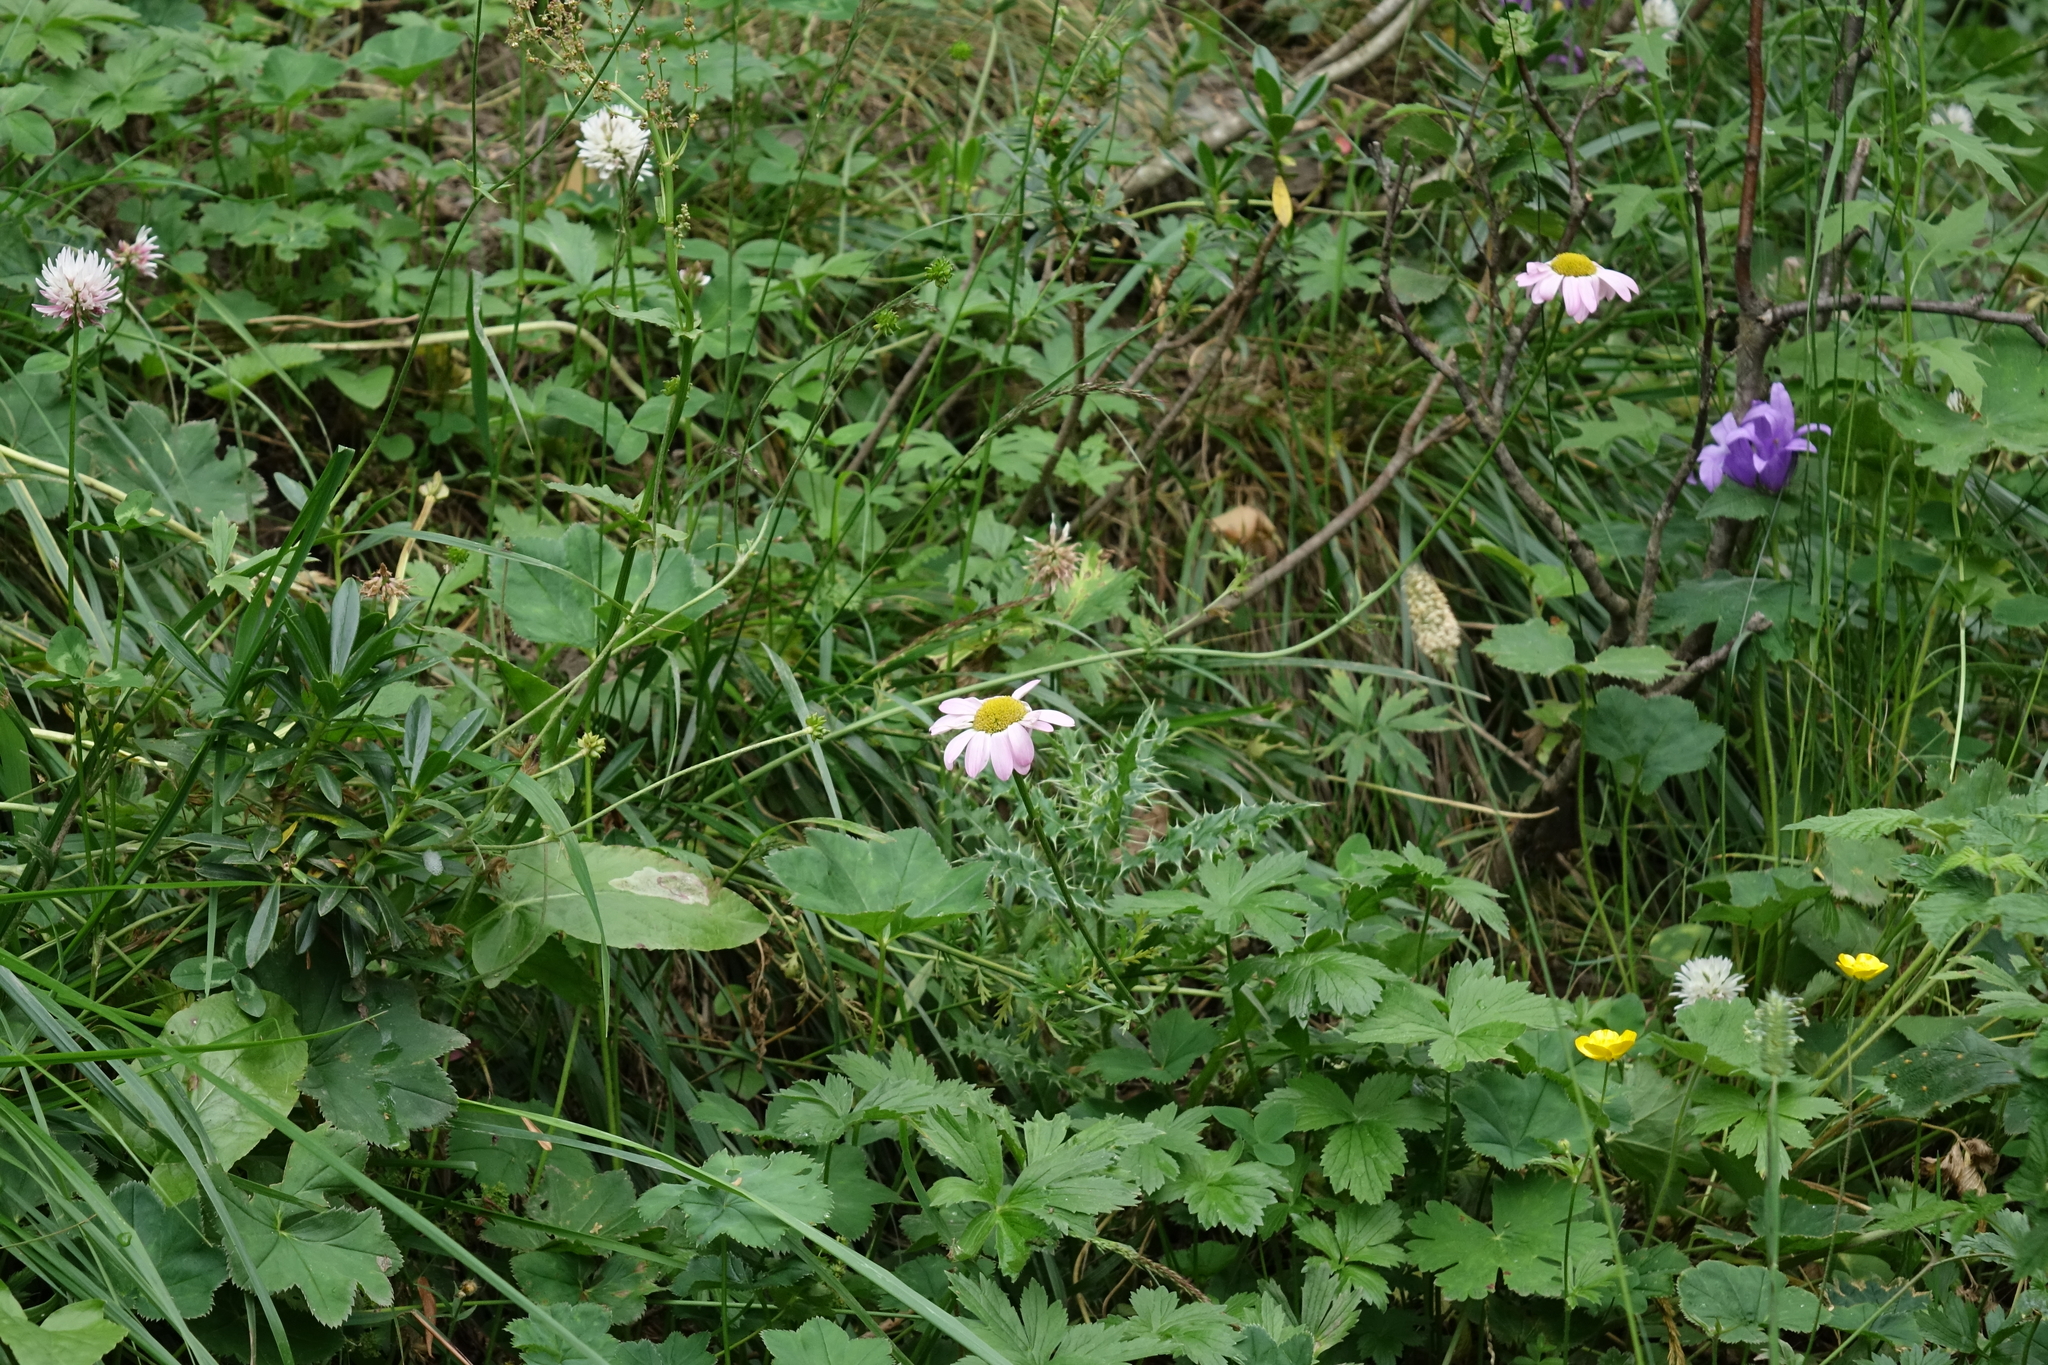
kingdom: Plantae
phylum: Tracheophyta
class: Magnoliopsida
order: Asterales
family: Asteraceae
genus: Tanacetum
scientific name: Tanacetum coccineum
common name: Pyrethum daisy
